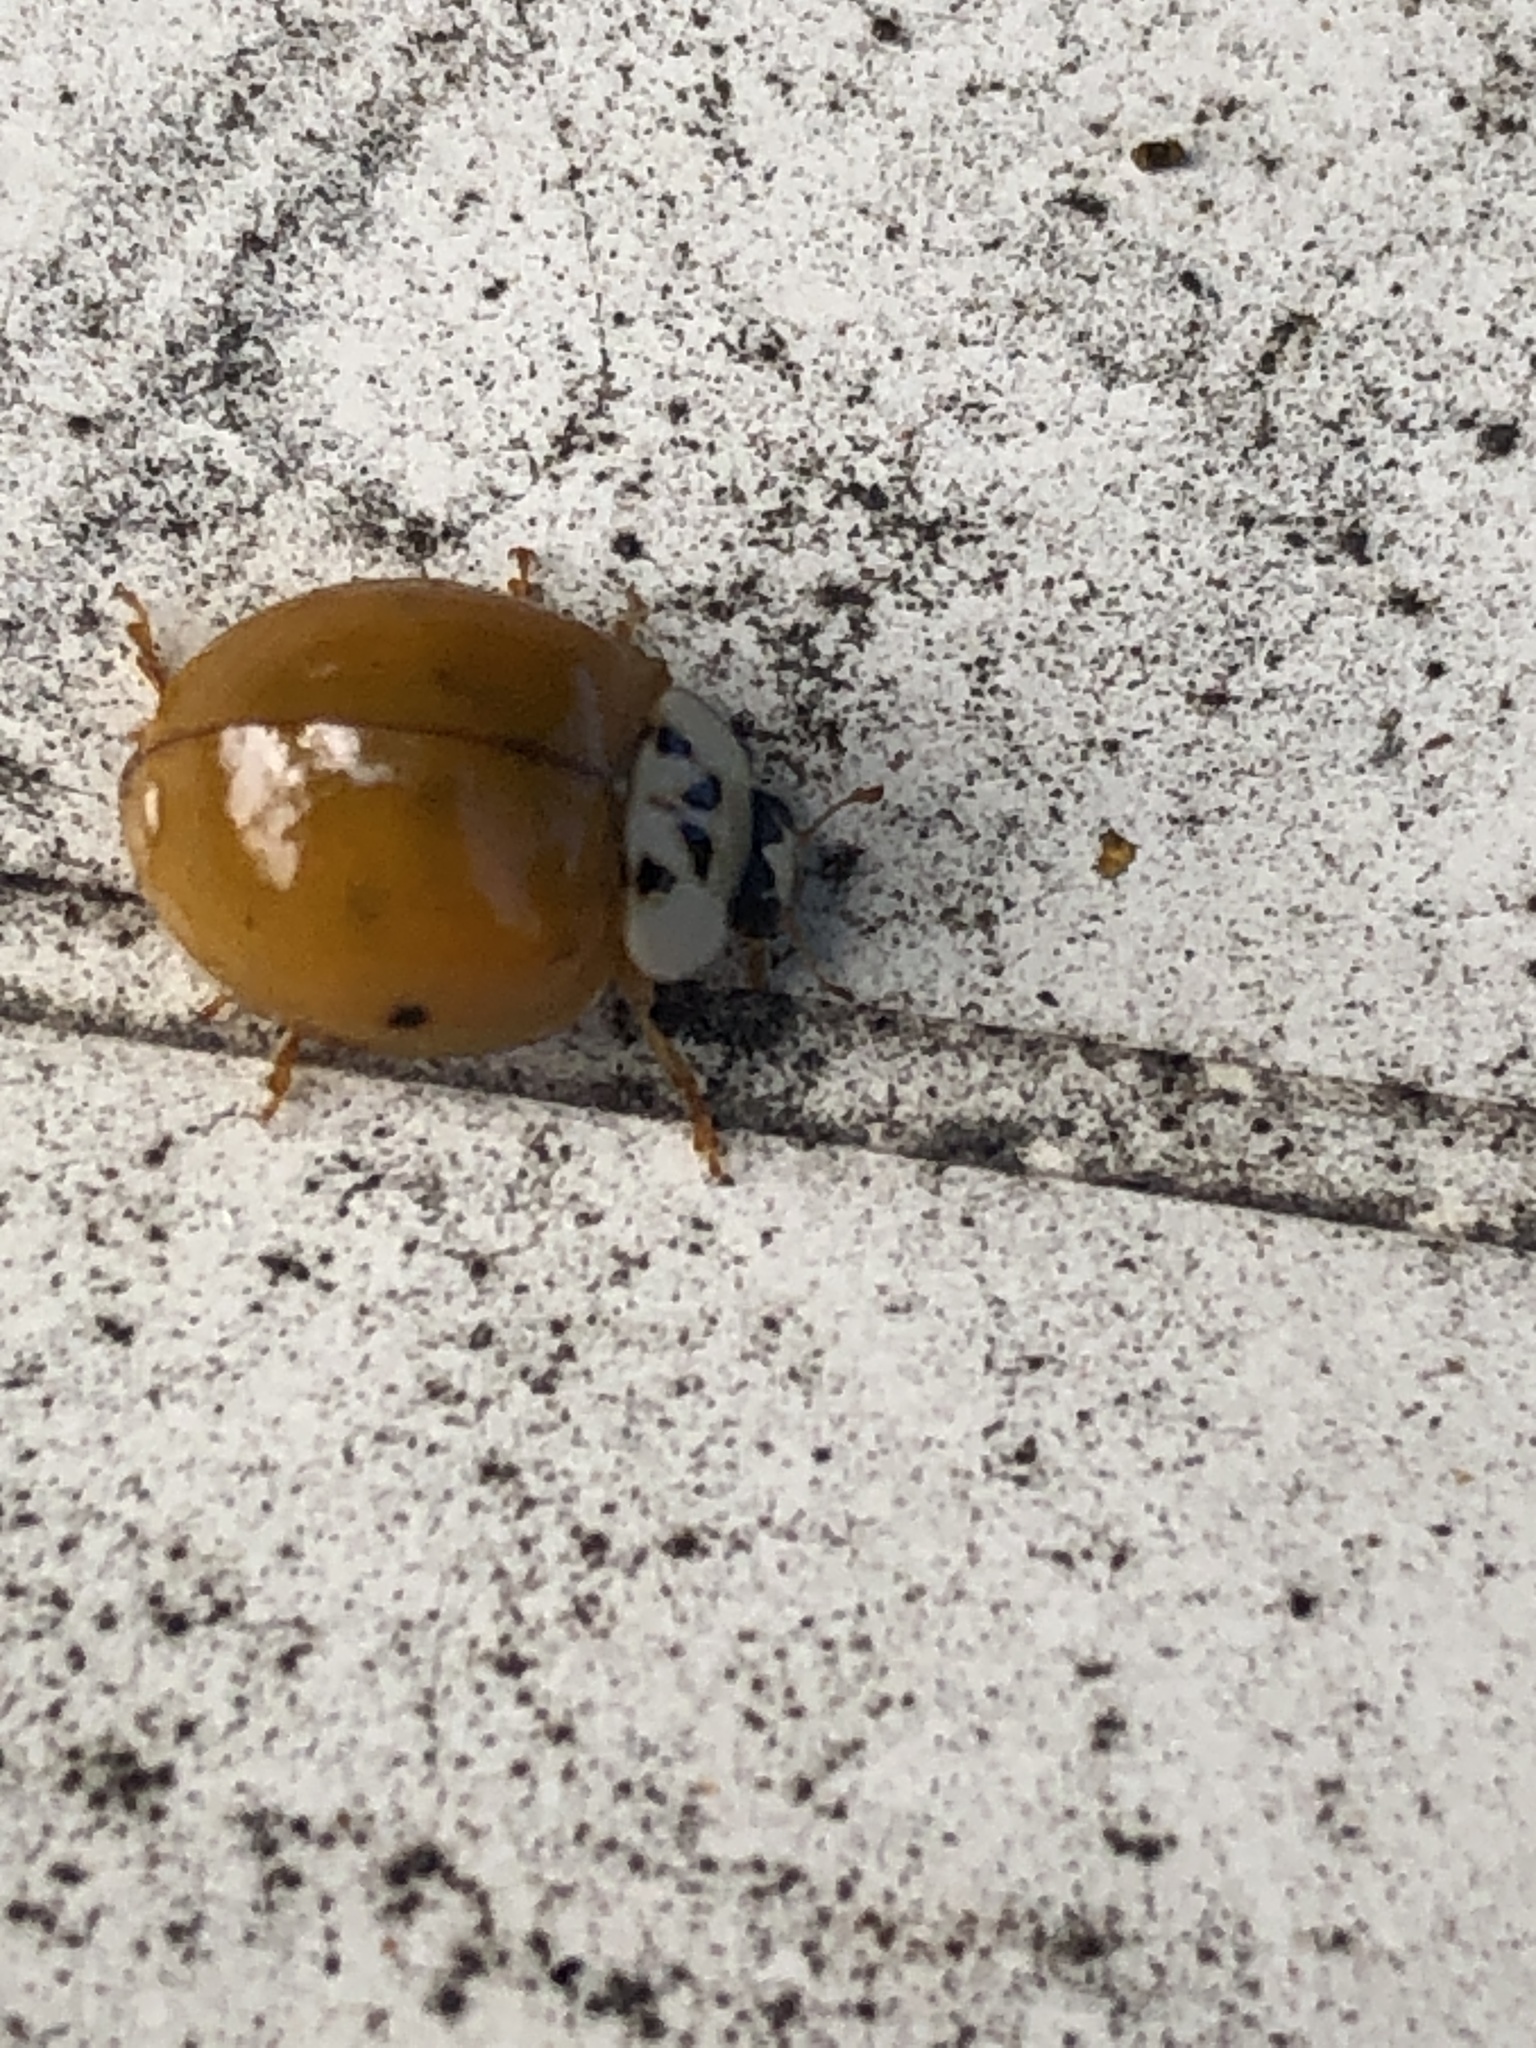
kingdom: Animalia
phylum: Arthropoda
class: Insecta
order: Coleoptera
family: Coccinellidae
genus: Harmonia
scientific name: Harmonia axyridis
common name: Harlequin ladybird
